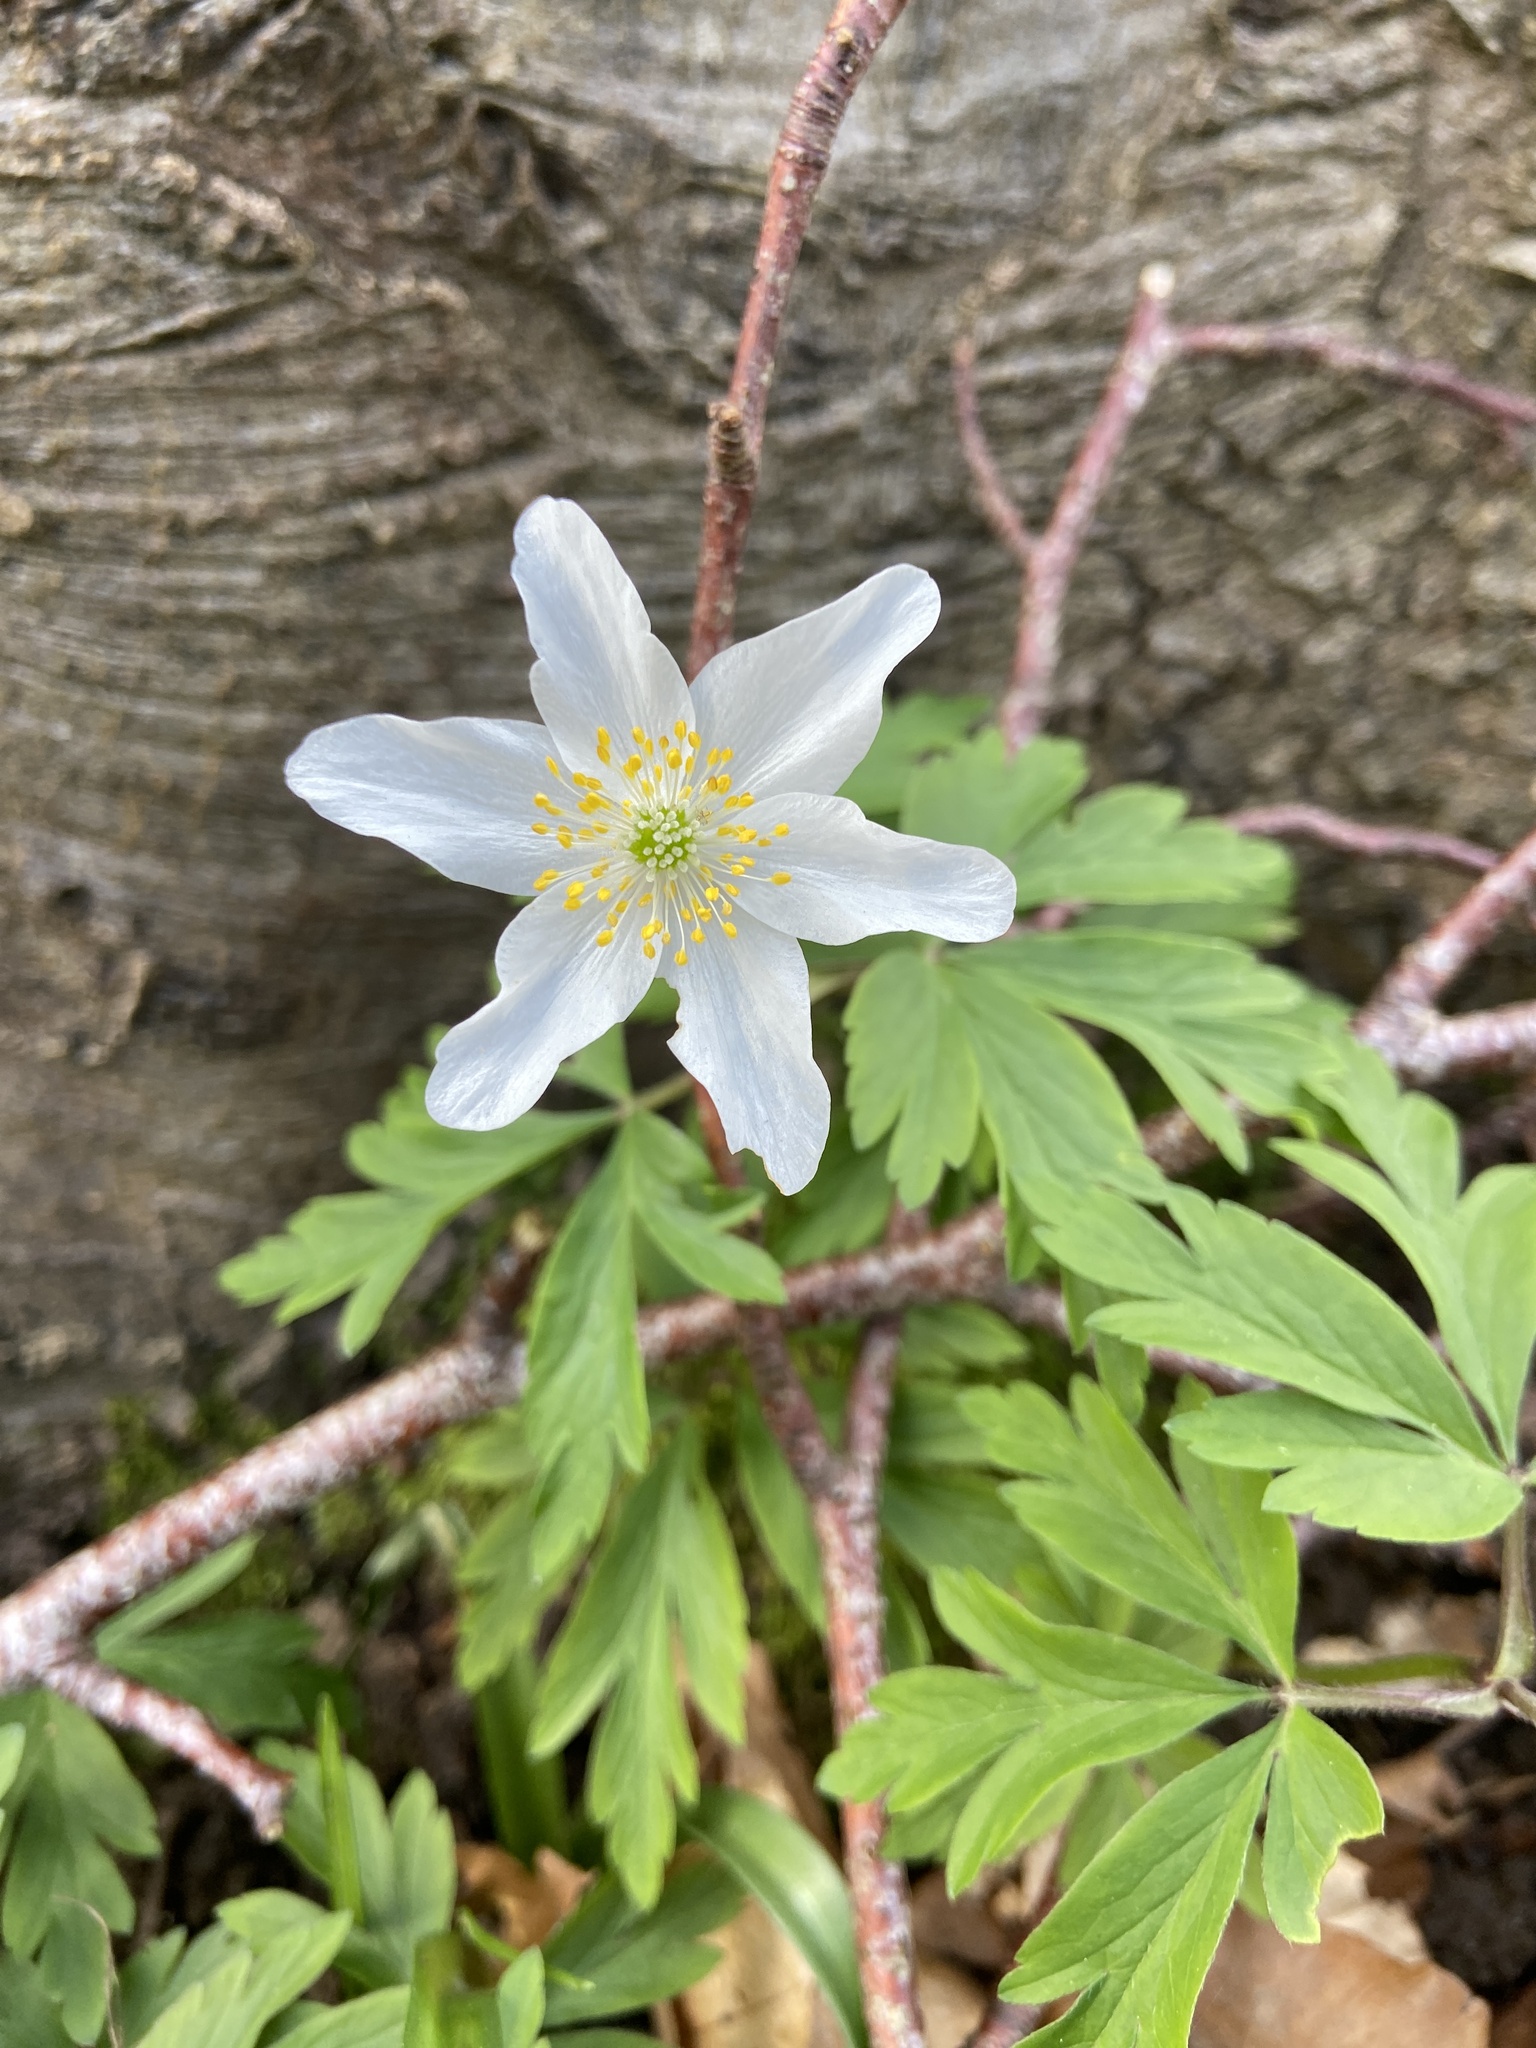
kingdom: Plantae
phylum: Tracheophyta
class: Magnoliopsida
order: Ranunculales
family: Ranunculaceae
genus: Anemone
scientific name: Anemone nemorosa
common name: Wood anemone
